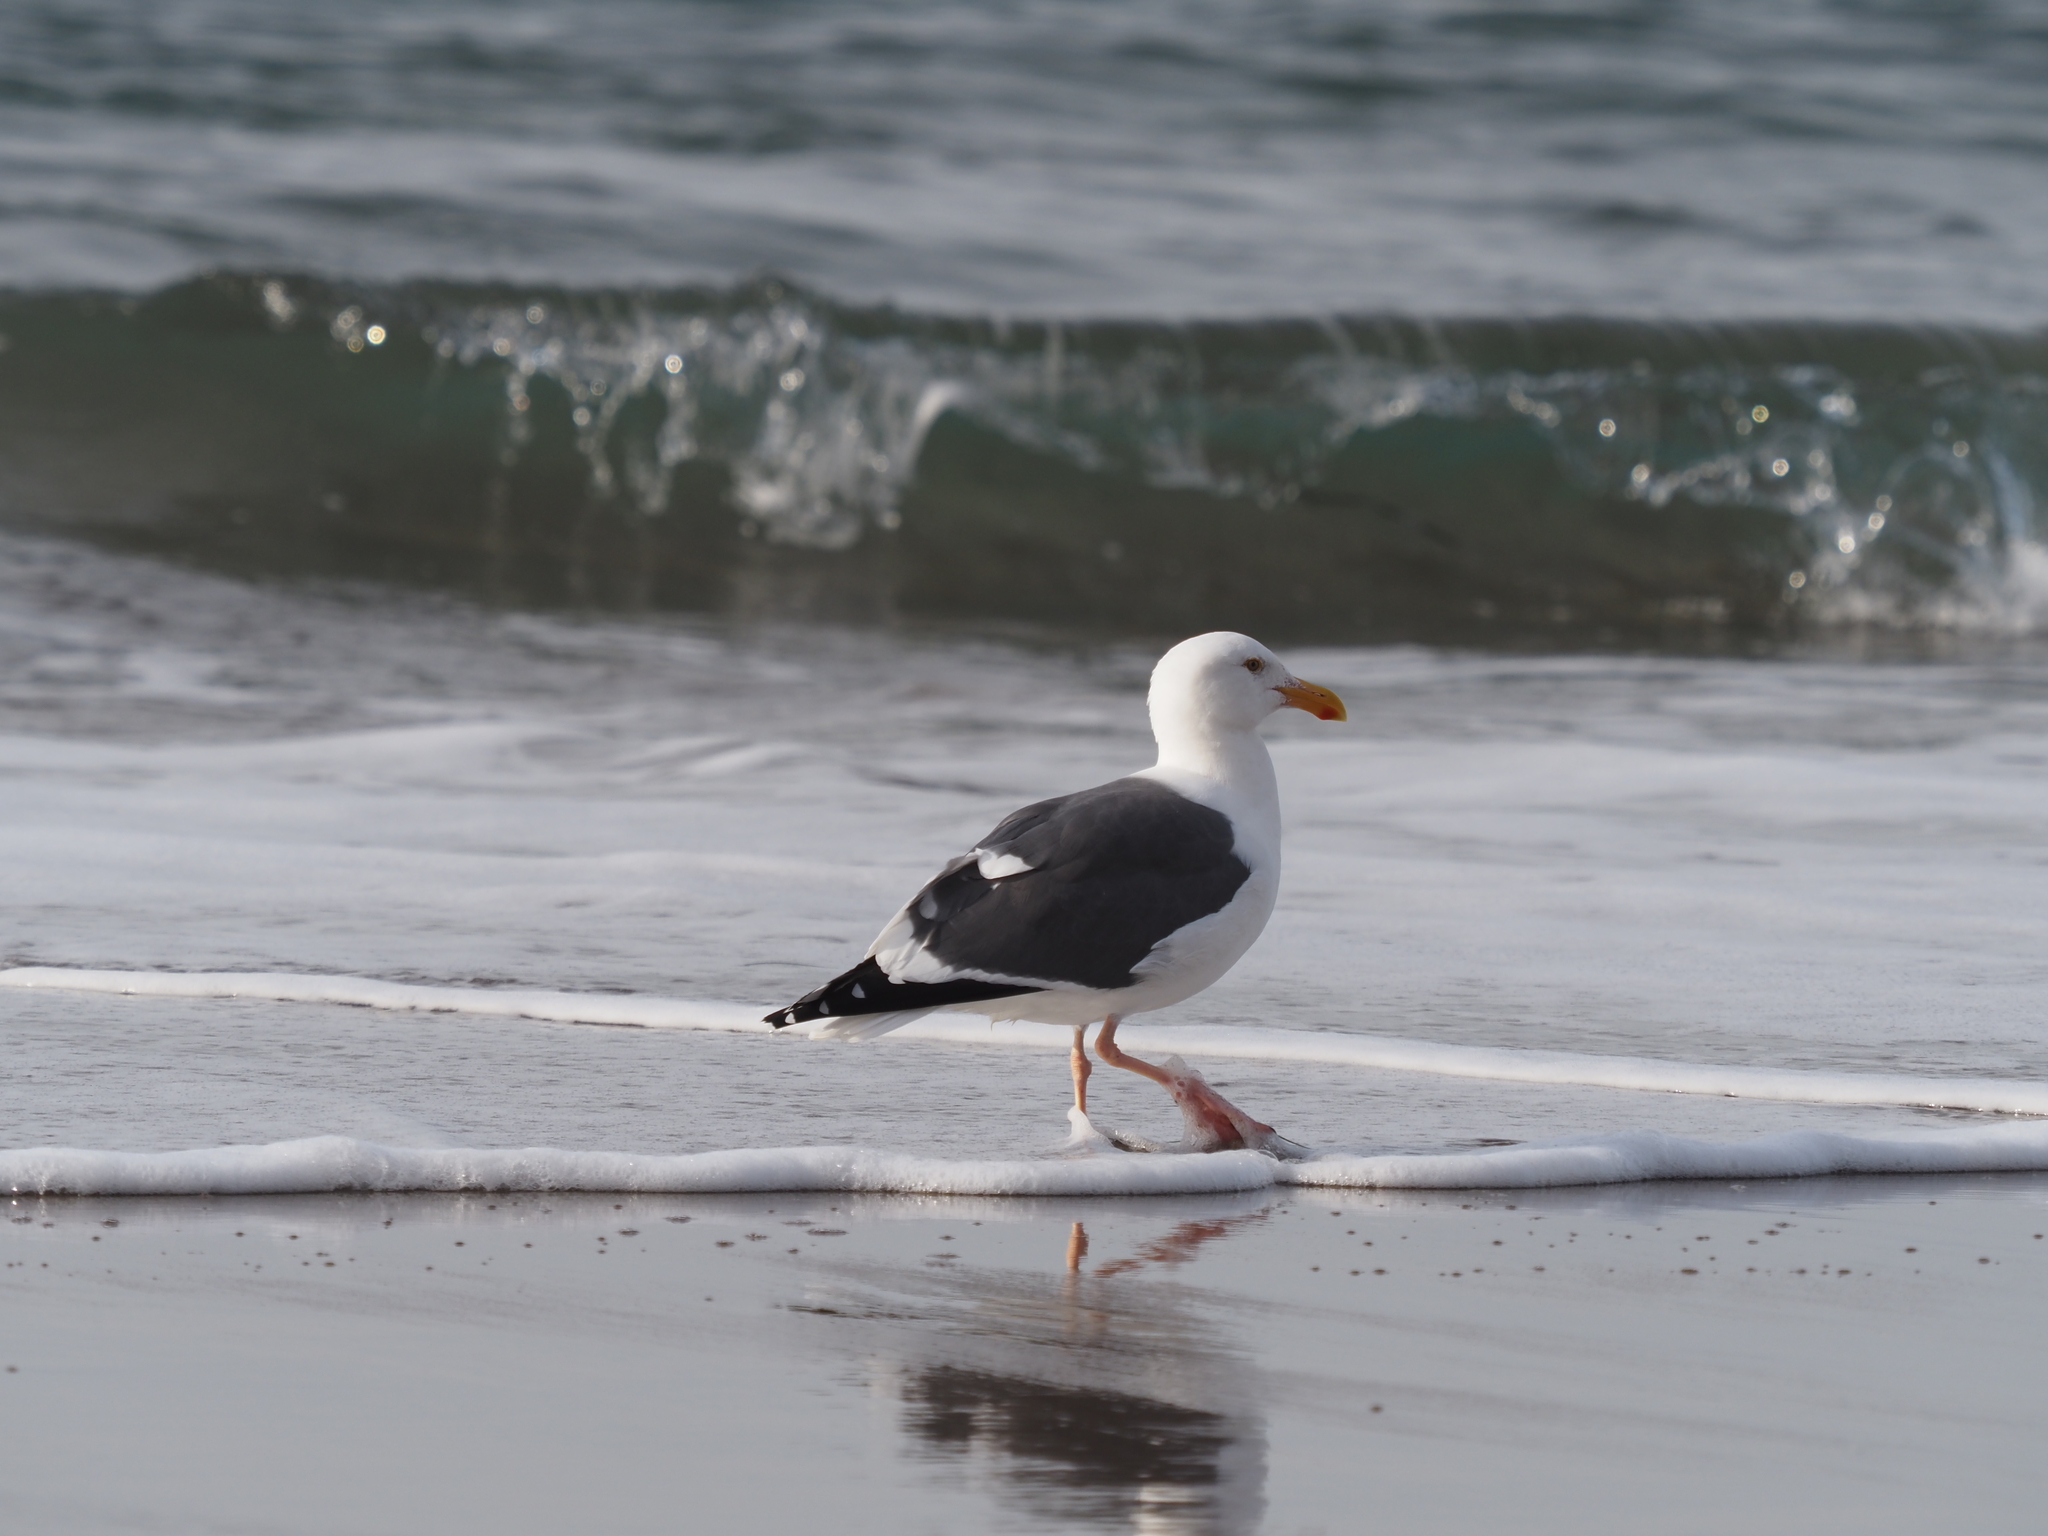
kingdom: Animalia
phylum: Chordata
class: Aves
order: Charadriiformes
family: Laridae
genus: Larus
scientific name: Larus occidentalis
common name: Western gull
